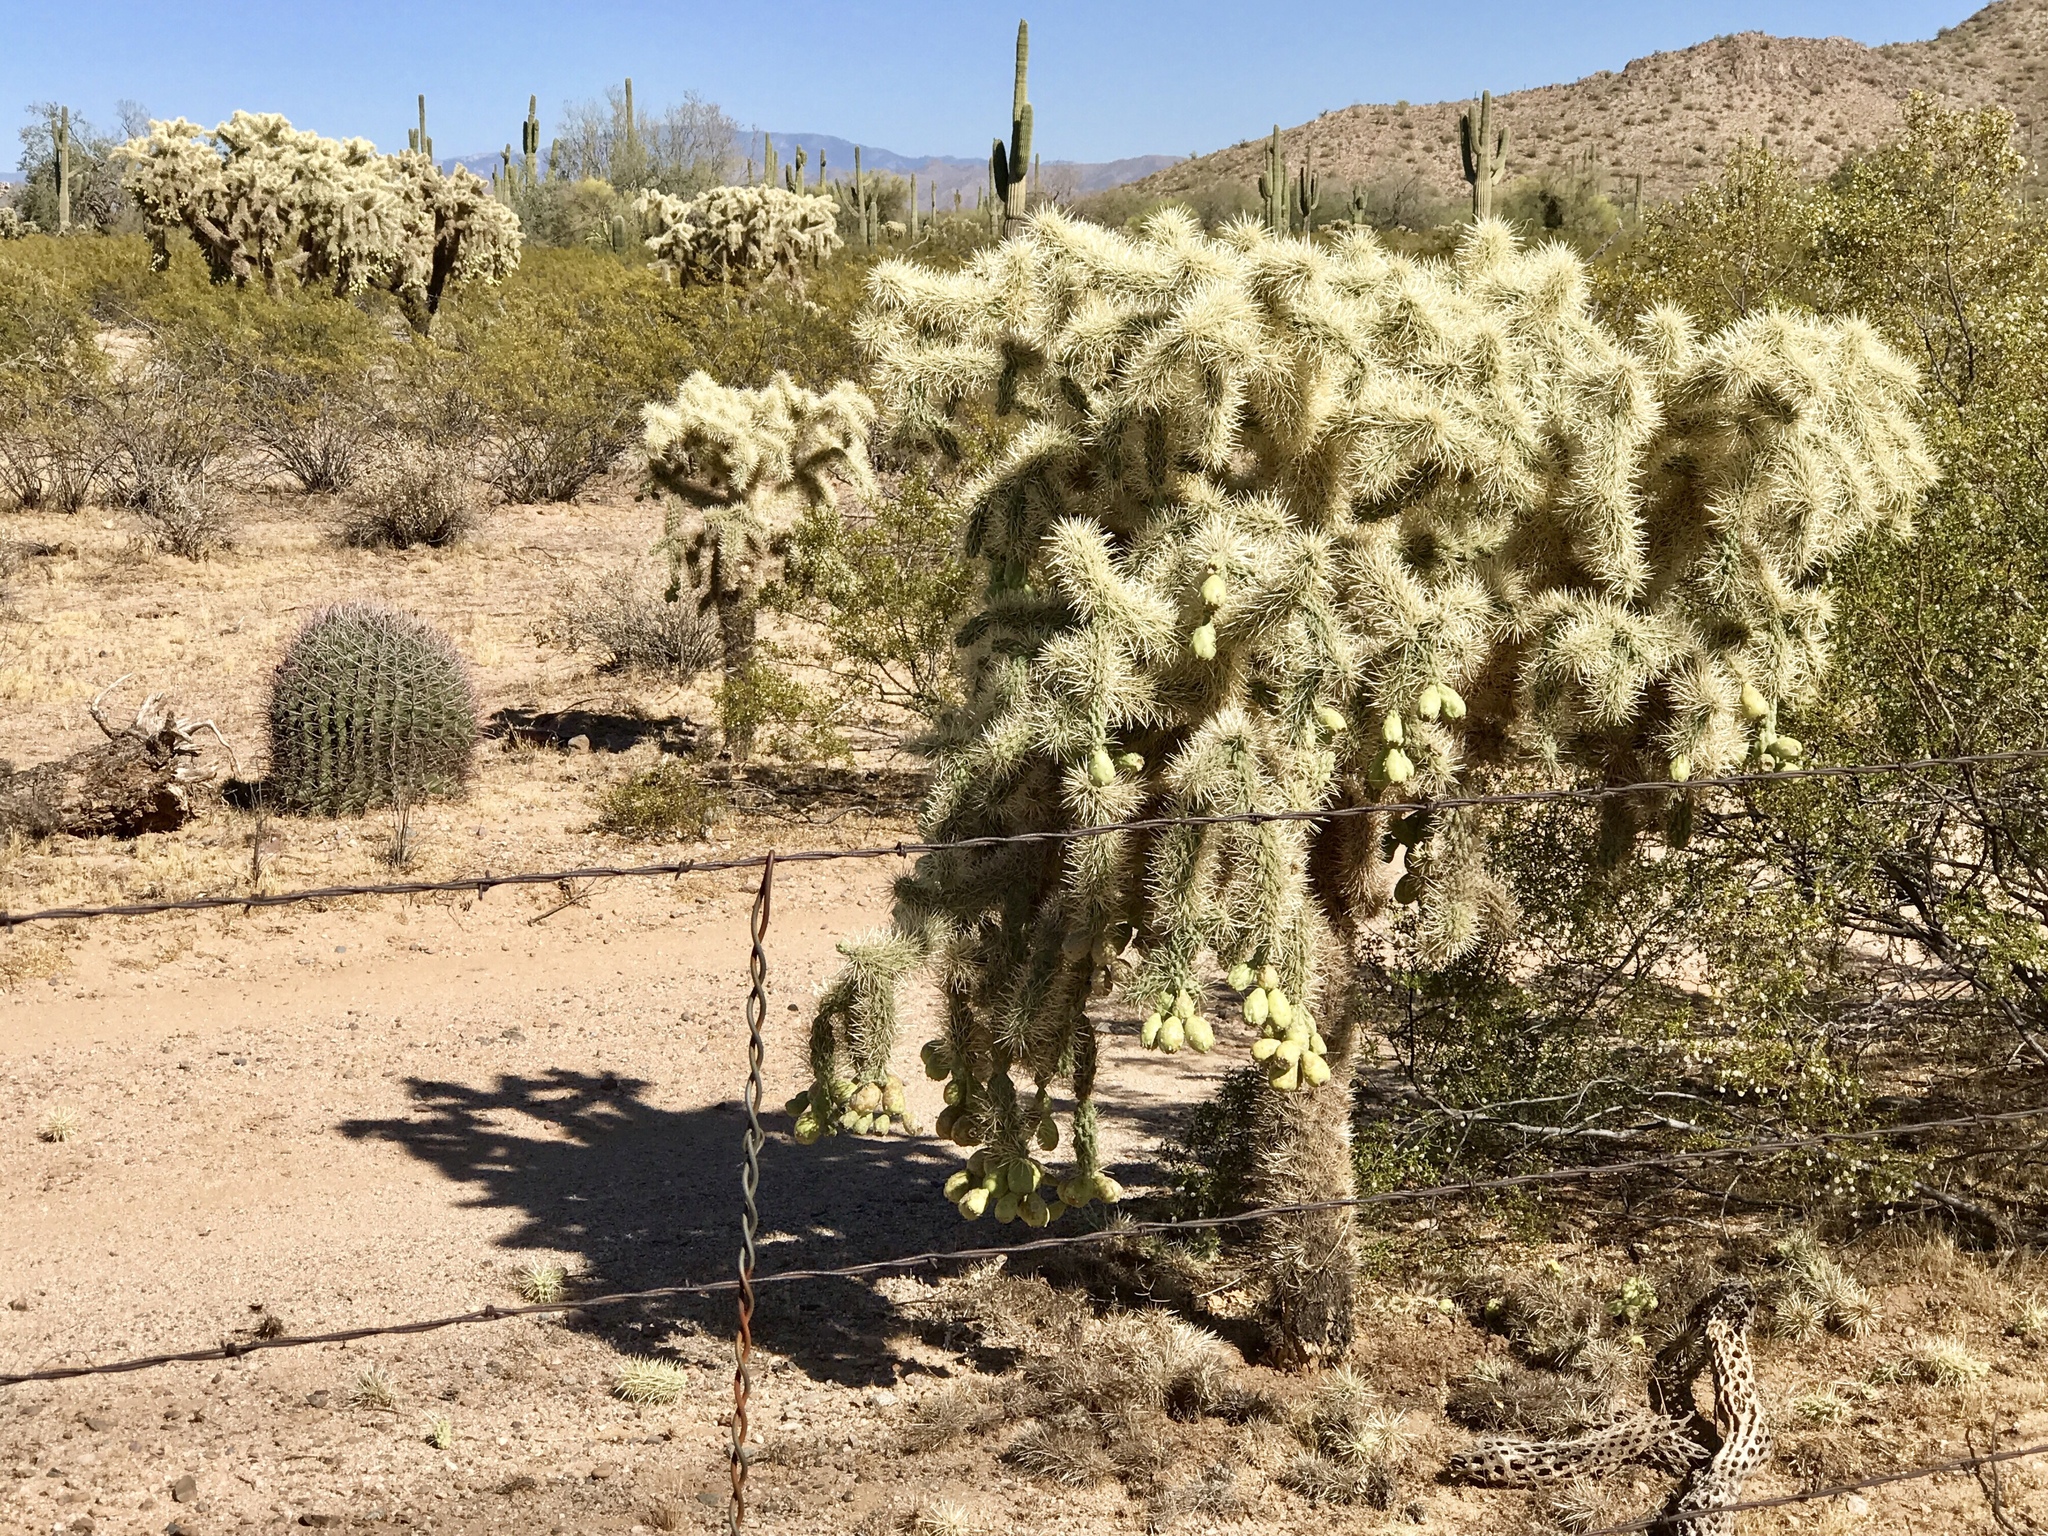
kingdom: Plantae
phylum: Tracheophyta
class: Magnoliopsida
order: Caryophyllales
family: Cactaceae
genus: Cylindropuntia
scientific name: Cylindropuntia fulgida
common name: Jumping cholla
